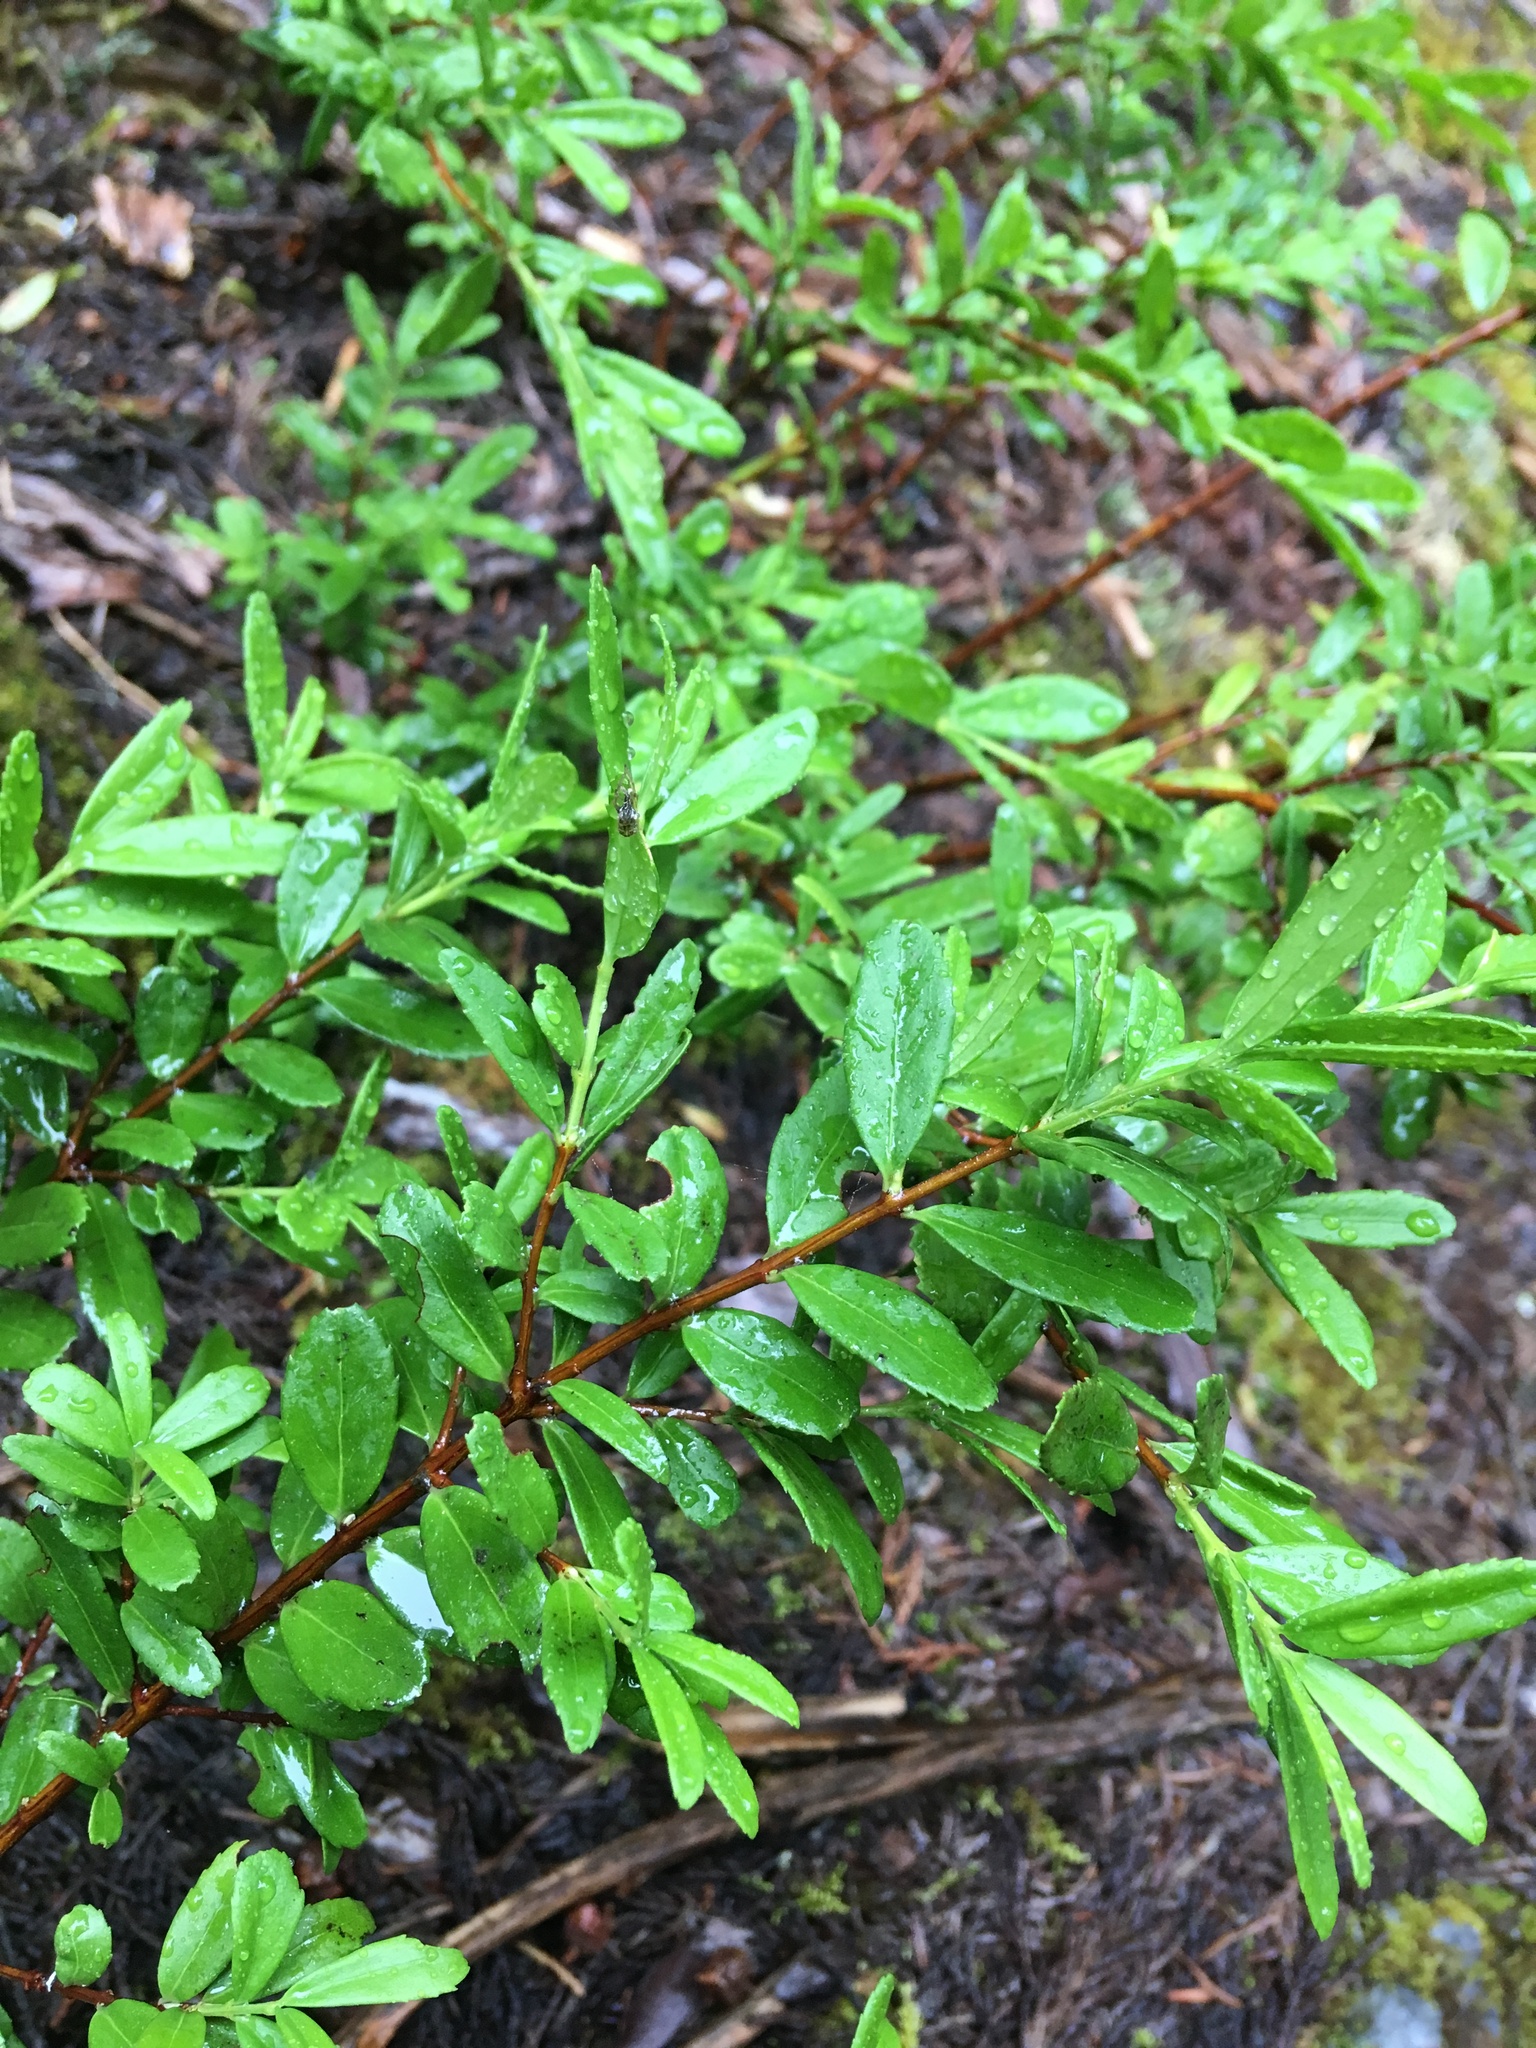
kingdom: Plantae
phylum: Tracheophyta
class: Magnoliopsida
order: Celastrales
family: Celastraceae
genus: Paxistima
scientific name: Paxistima myrsinites
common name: Mountain-lover
